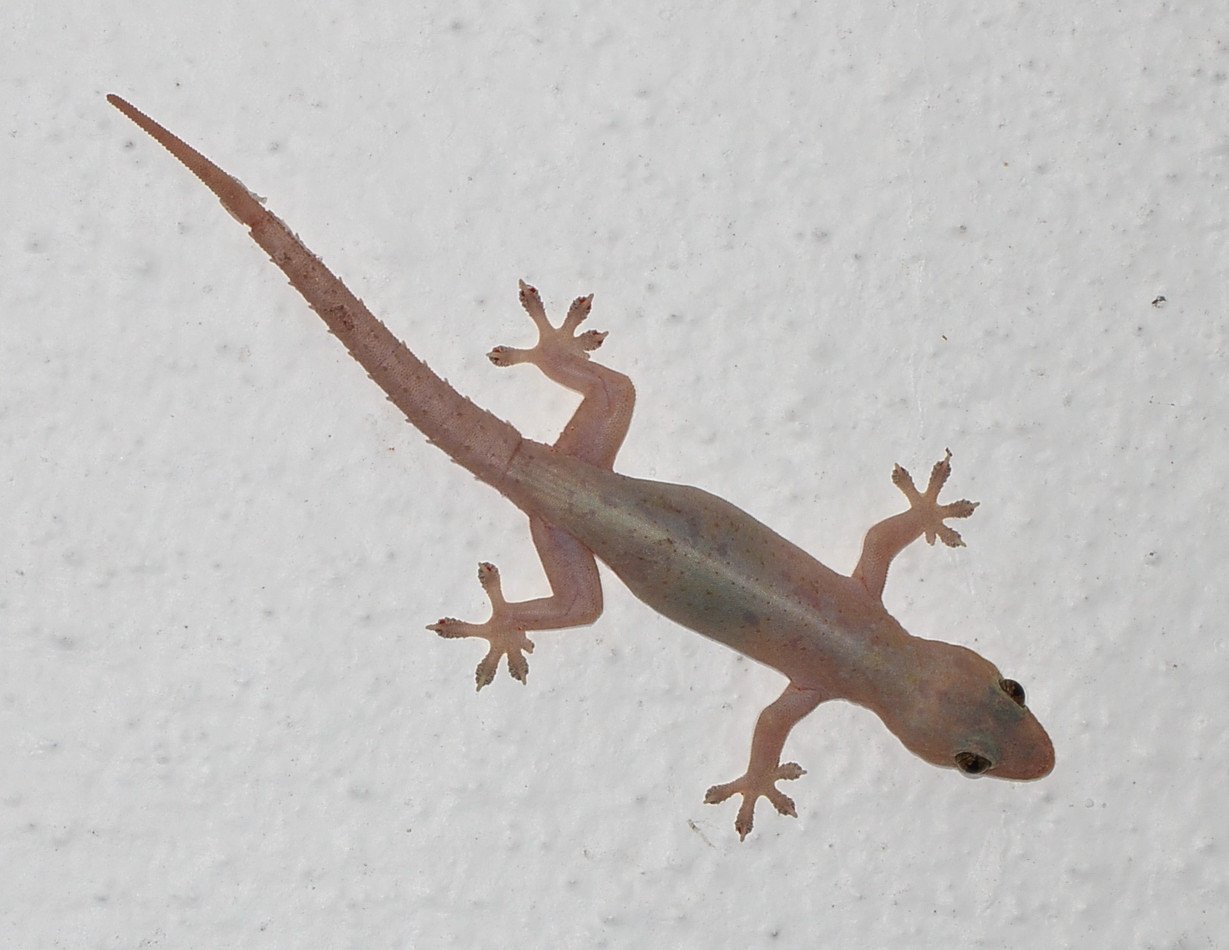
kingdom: Animalia
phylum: Chordata
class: Squamata
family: Gekkonidae
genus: Hemidactylus
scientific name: Hemidactylus frenatus
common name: Common house gecko
